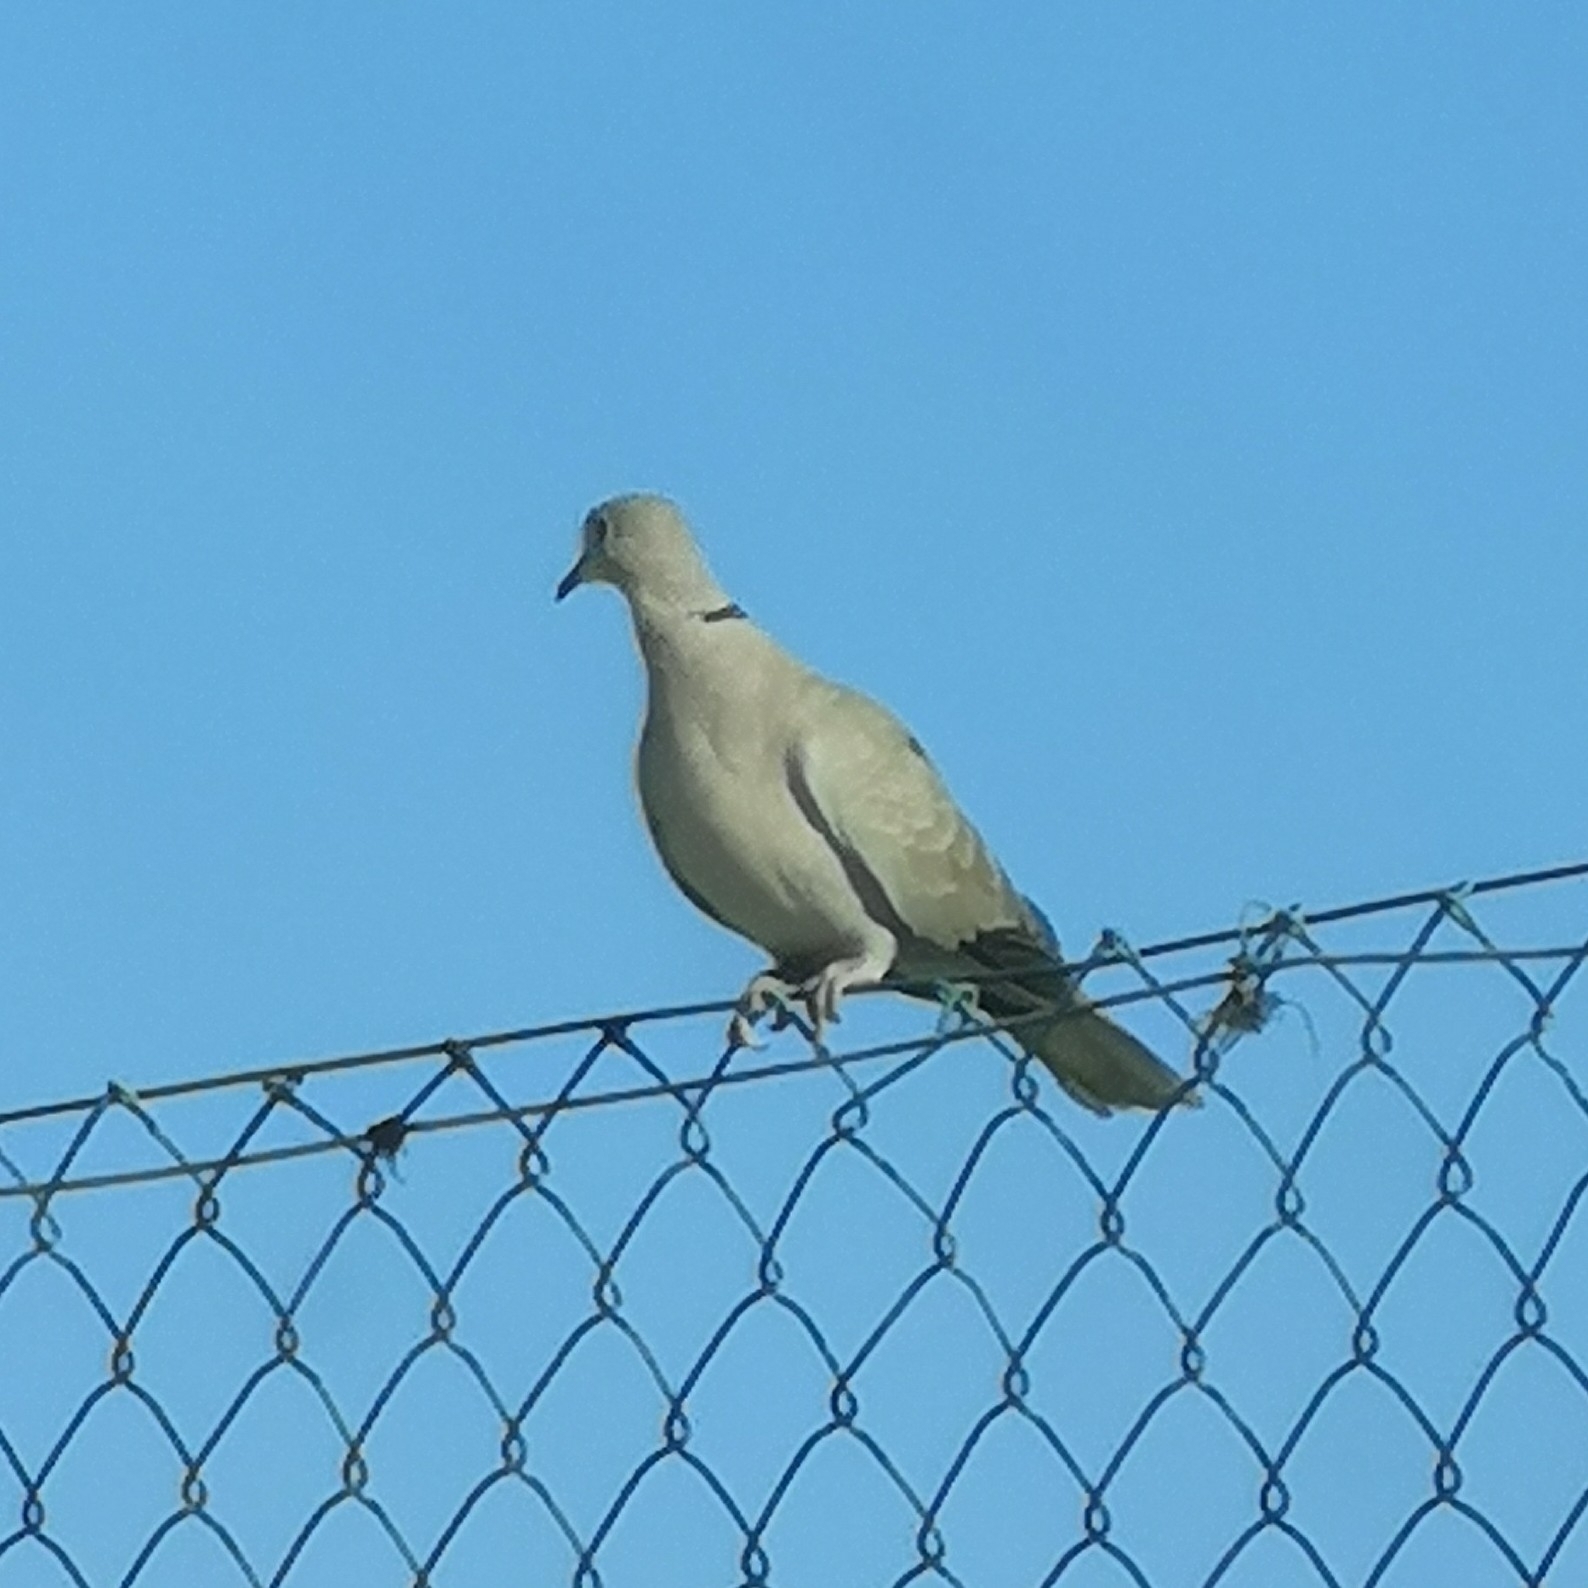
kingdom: Animalia
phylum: Chordata
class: Aves
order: Columbiformes
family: Columbidae
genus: Streptopelia
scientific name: Streptopelia decaocto
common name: Eurasian collared dove
